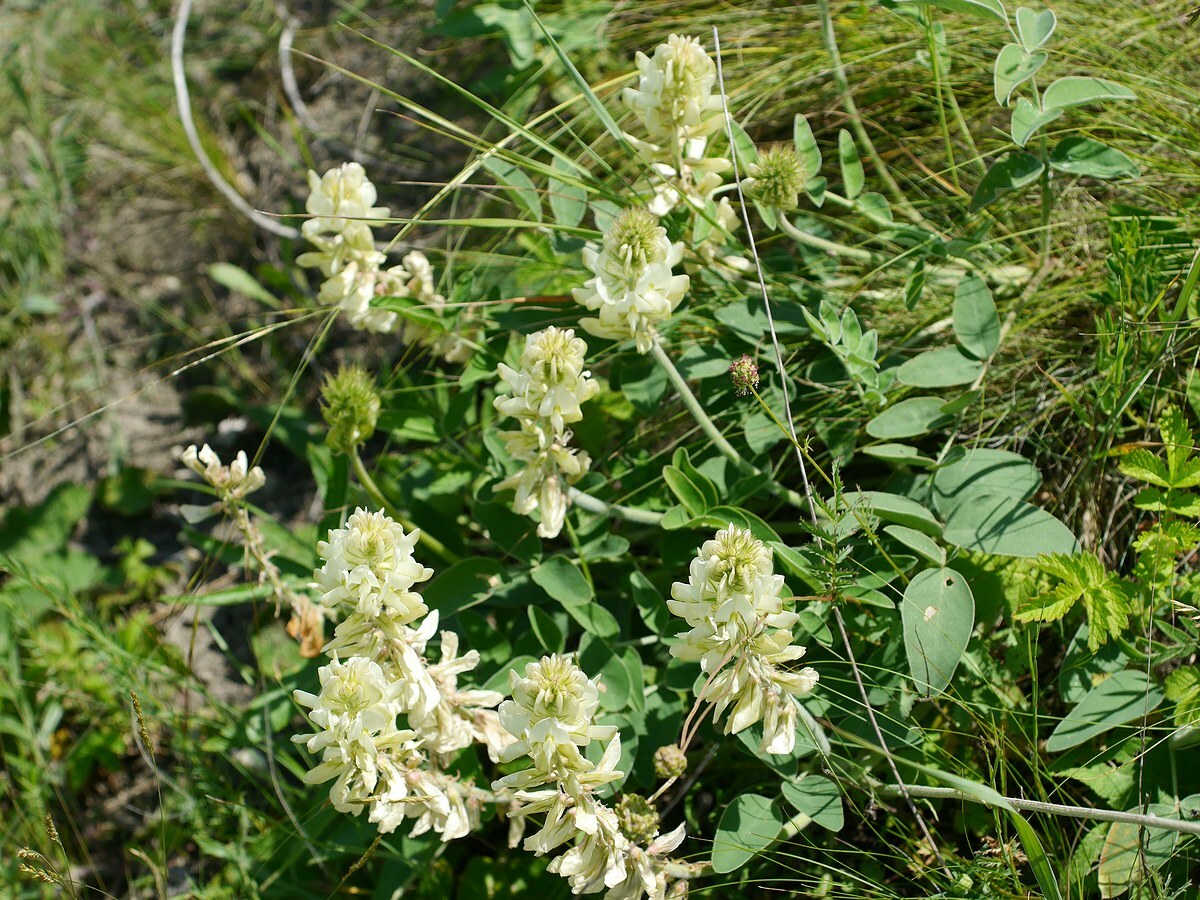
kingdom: Plantae
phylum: Tracheophyta
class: Magnoliopsida
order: Fabales
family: Fabaceae
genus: Hedysarum
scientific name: Hedysarum grandiflorum
